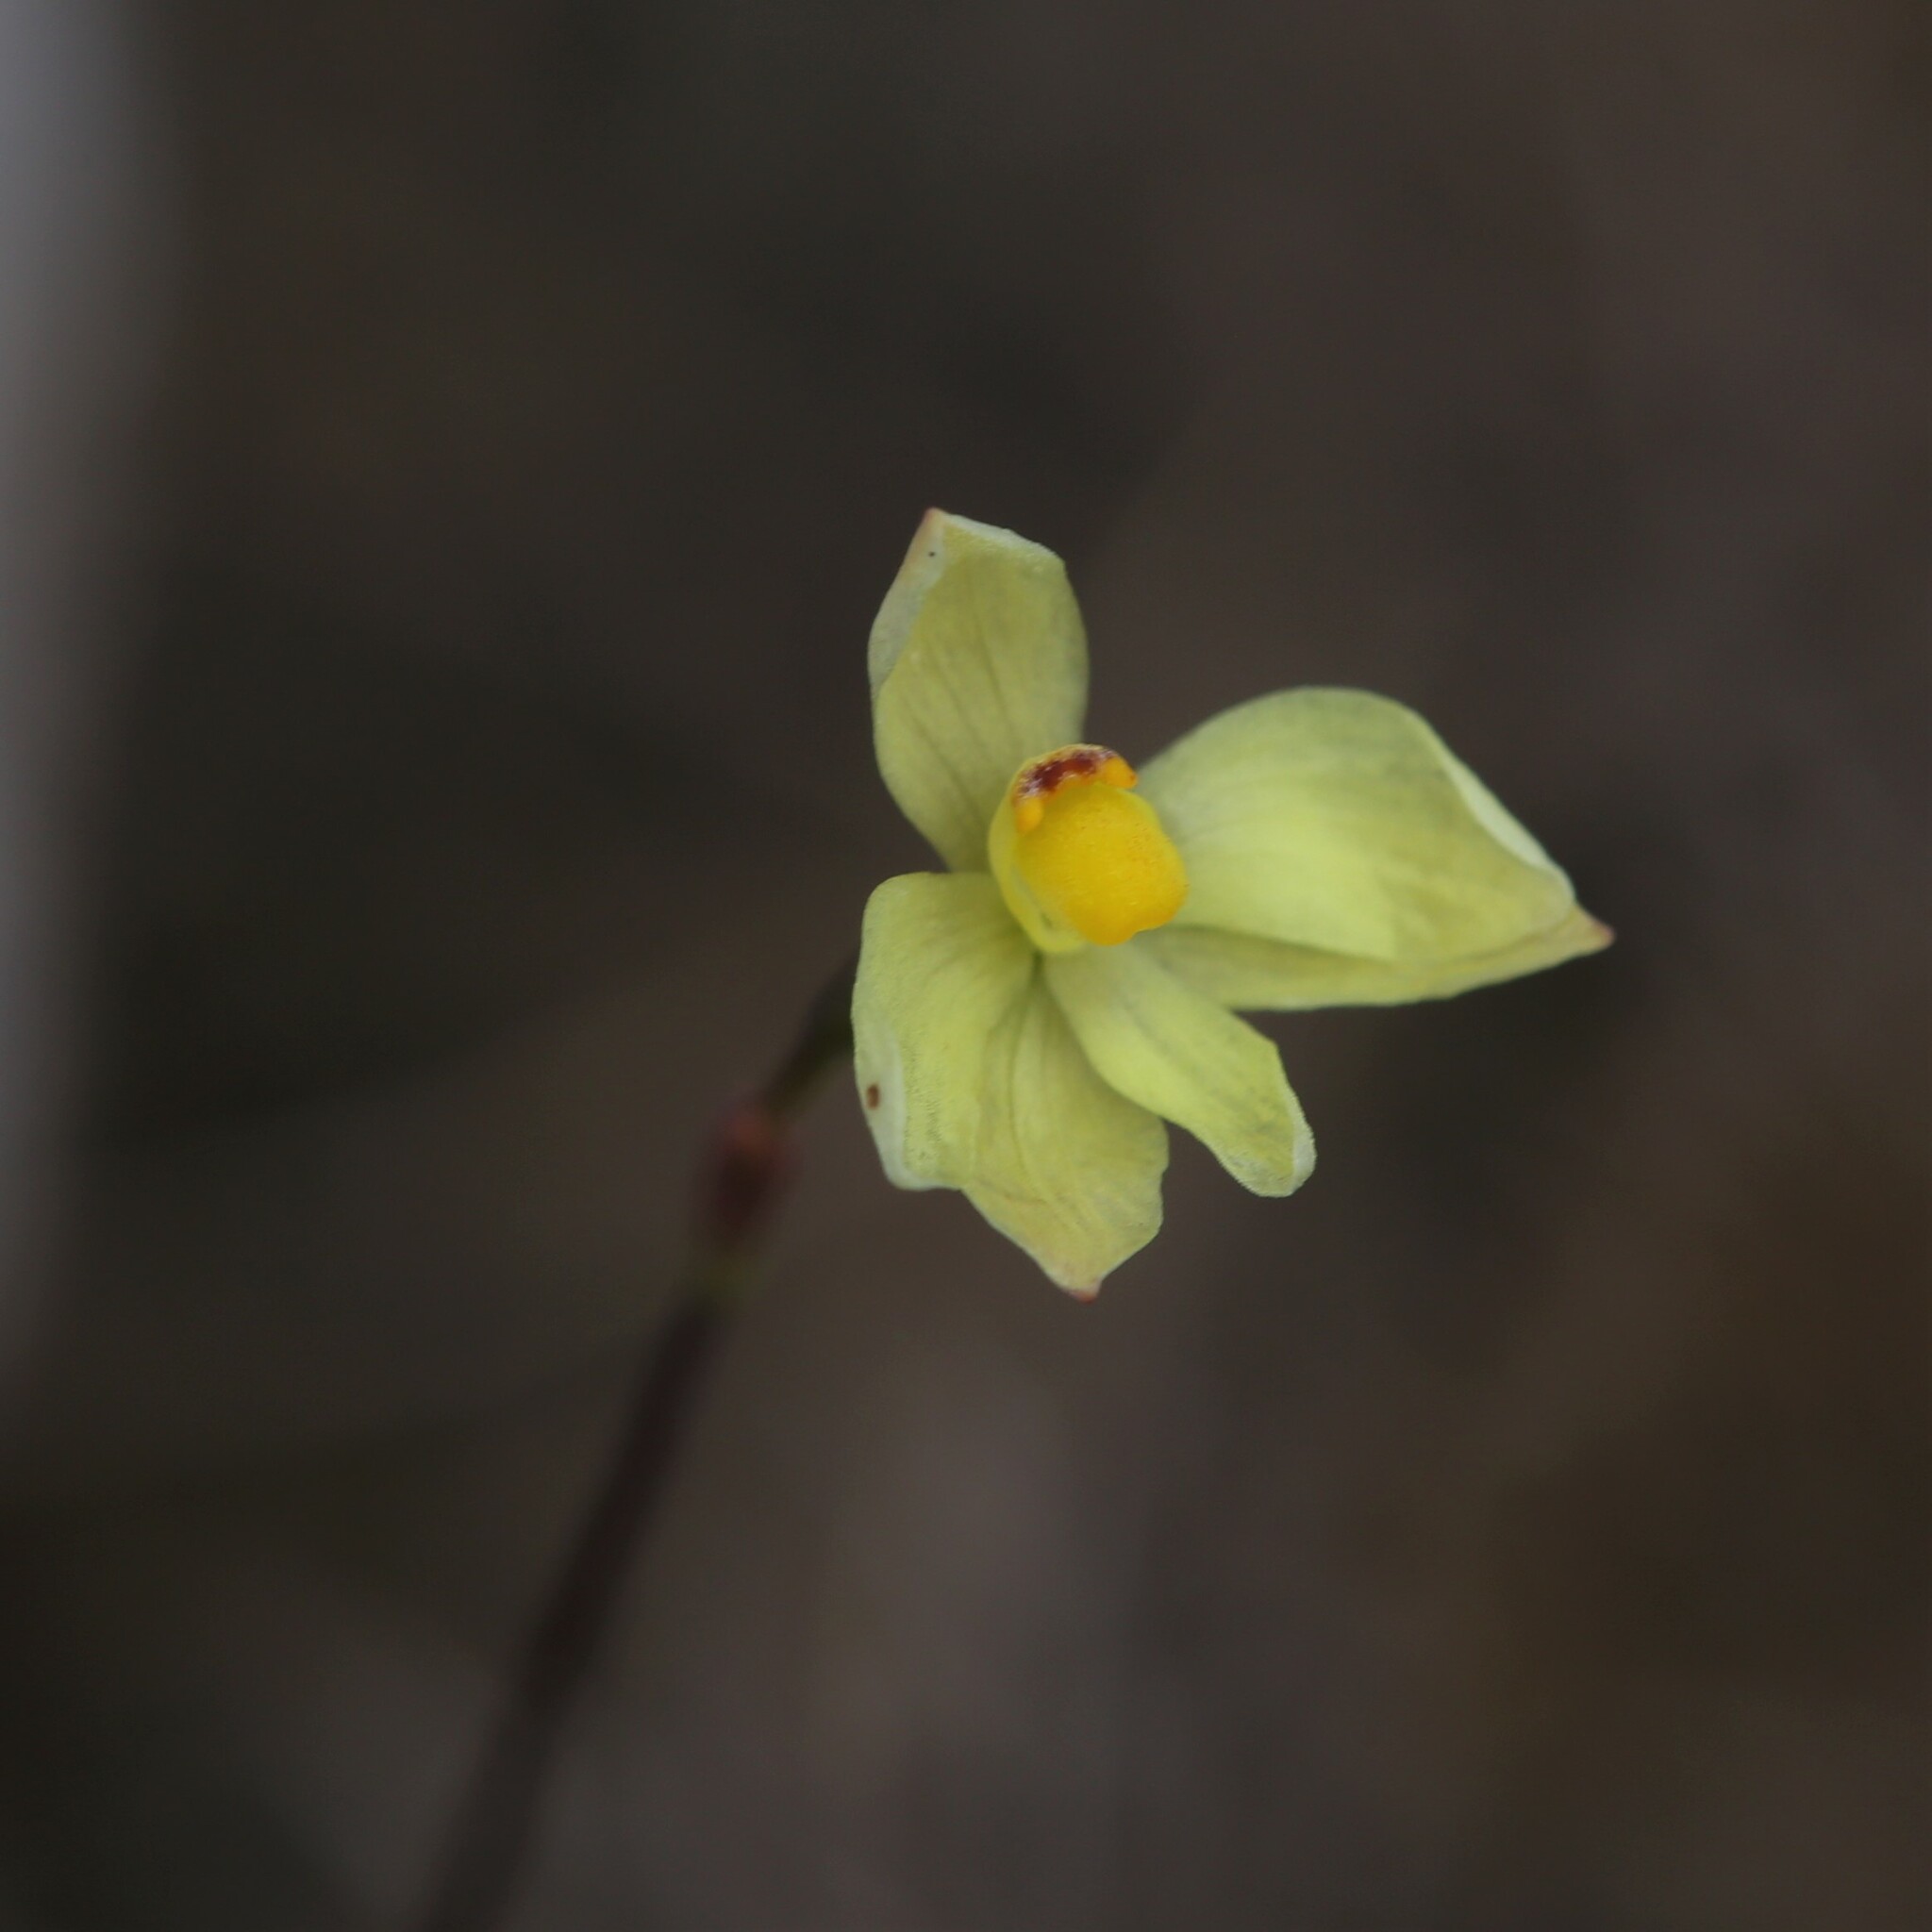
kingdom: Plantae
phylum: Tracheophyta
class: Liliopsida
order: Asparagales
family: Orchidaceae
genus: Thelymitra
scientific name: Thelymitra flexuosa
